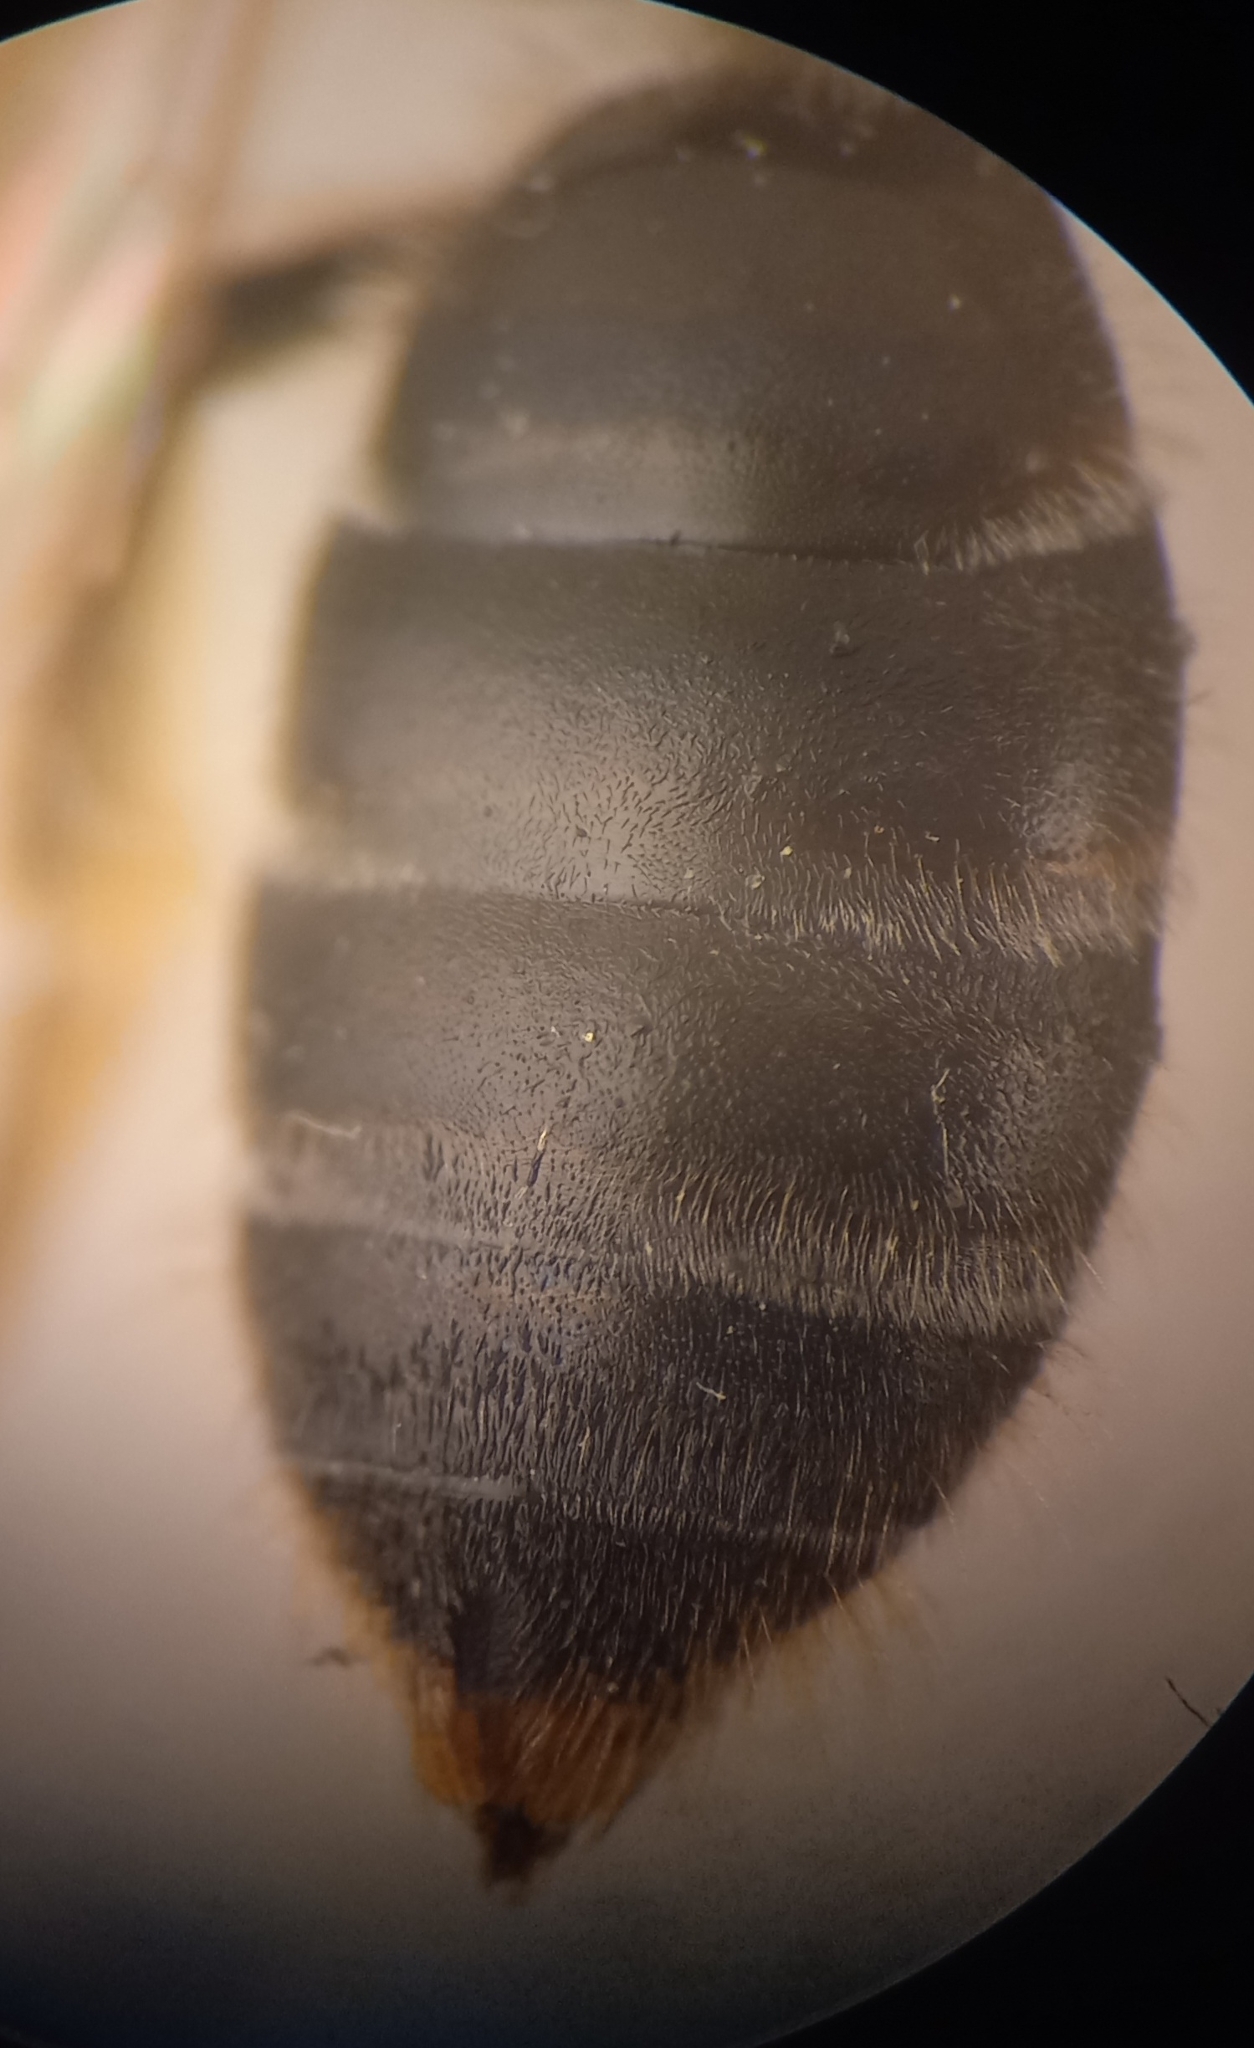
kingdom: Animalia
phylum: Arthropoda
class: Insecta
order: Hymenoptera
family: Halictidae
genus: Lasioglossum
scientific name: Lasioglossum marginatum
